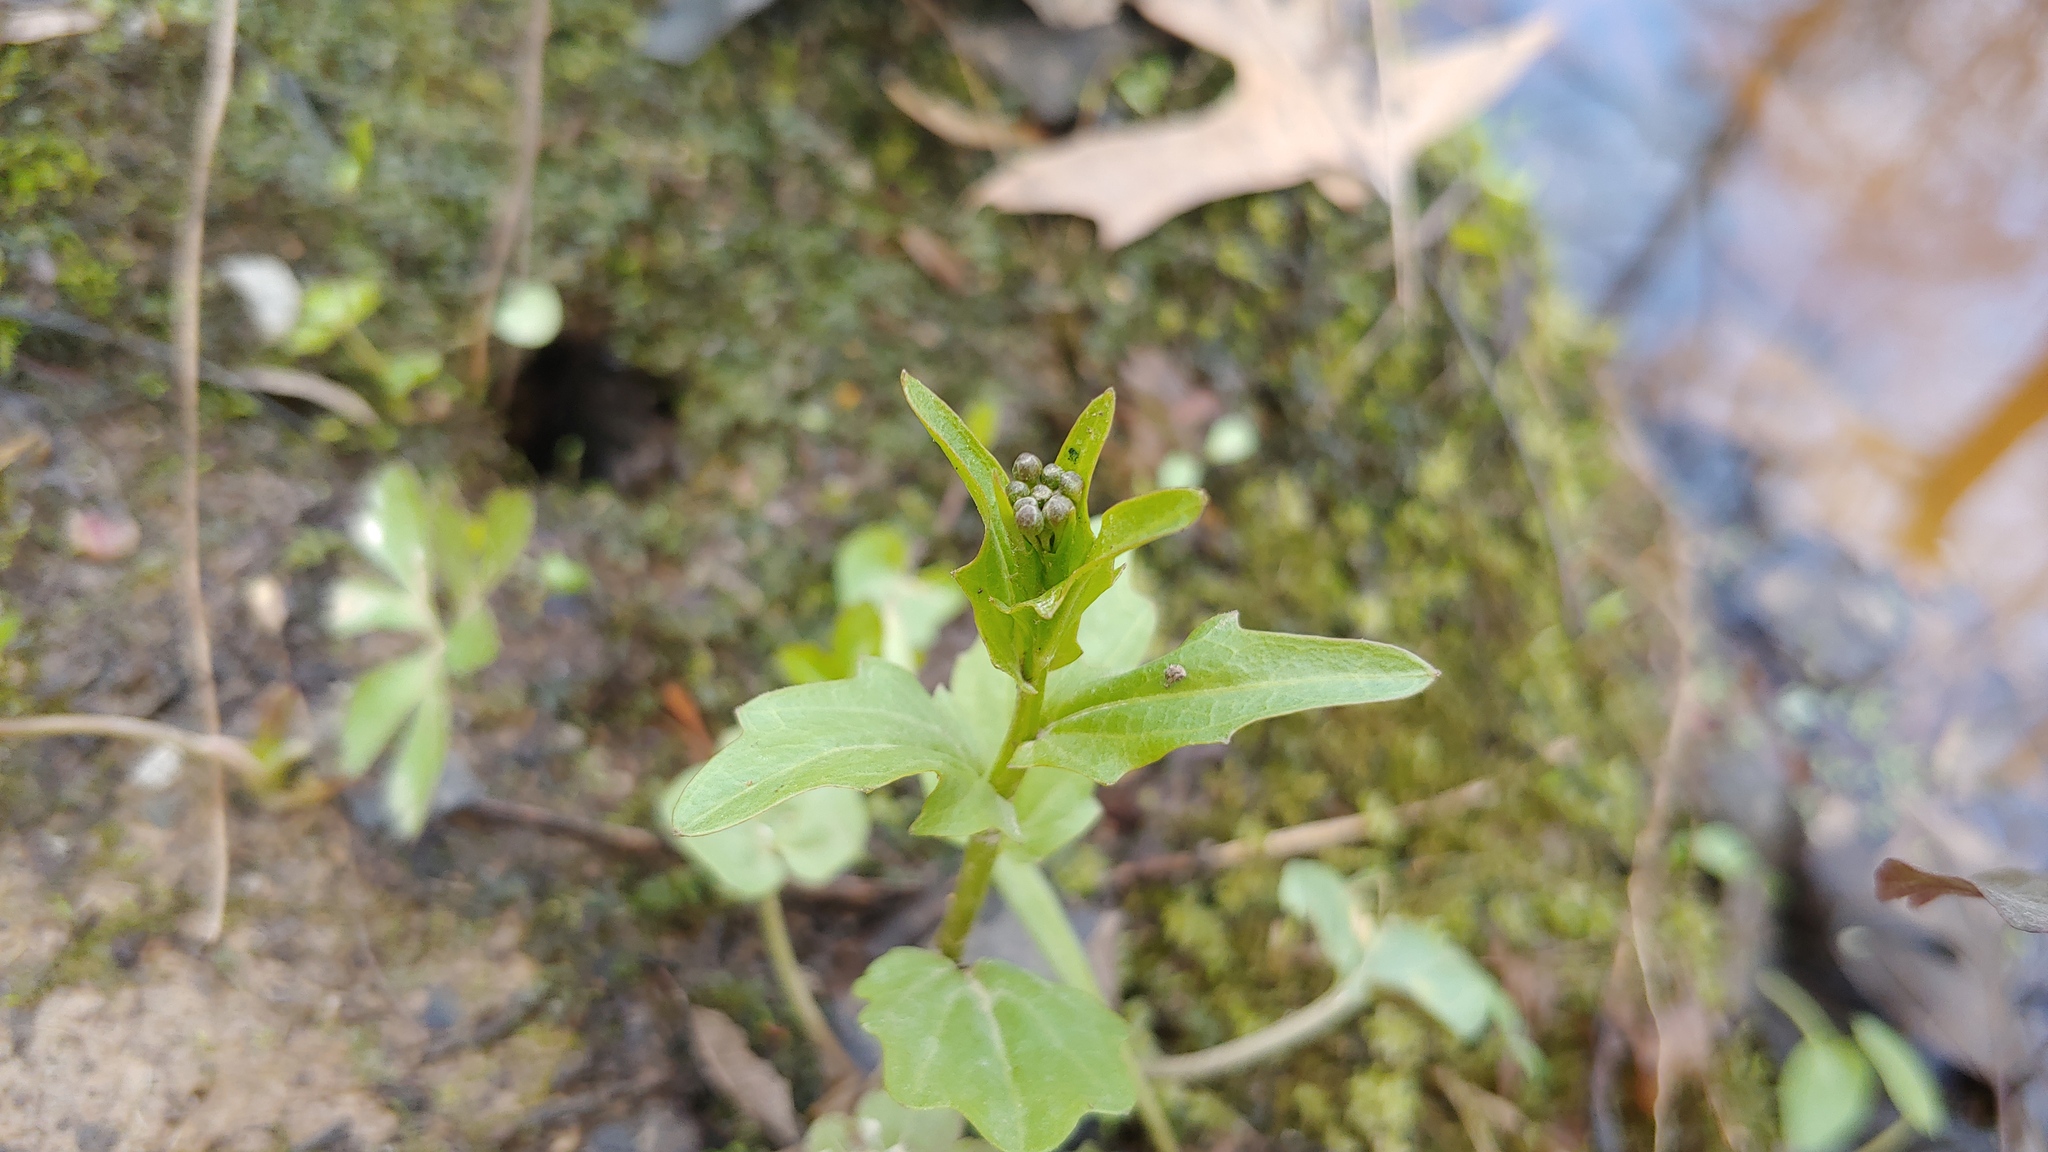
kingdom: Plantae
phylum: Tracheophyta
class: Magnoliopsida
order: Brassicales
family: Brassicaceae
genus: Cardamine
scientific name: Cardamine bulbosa
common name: Spring cress
